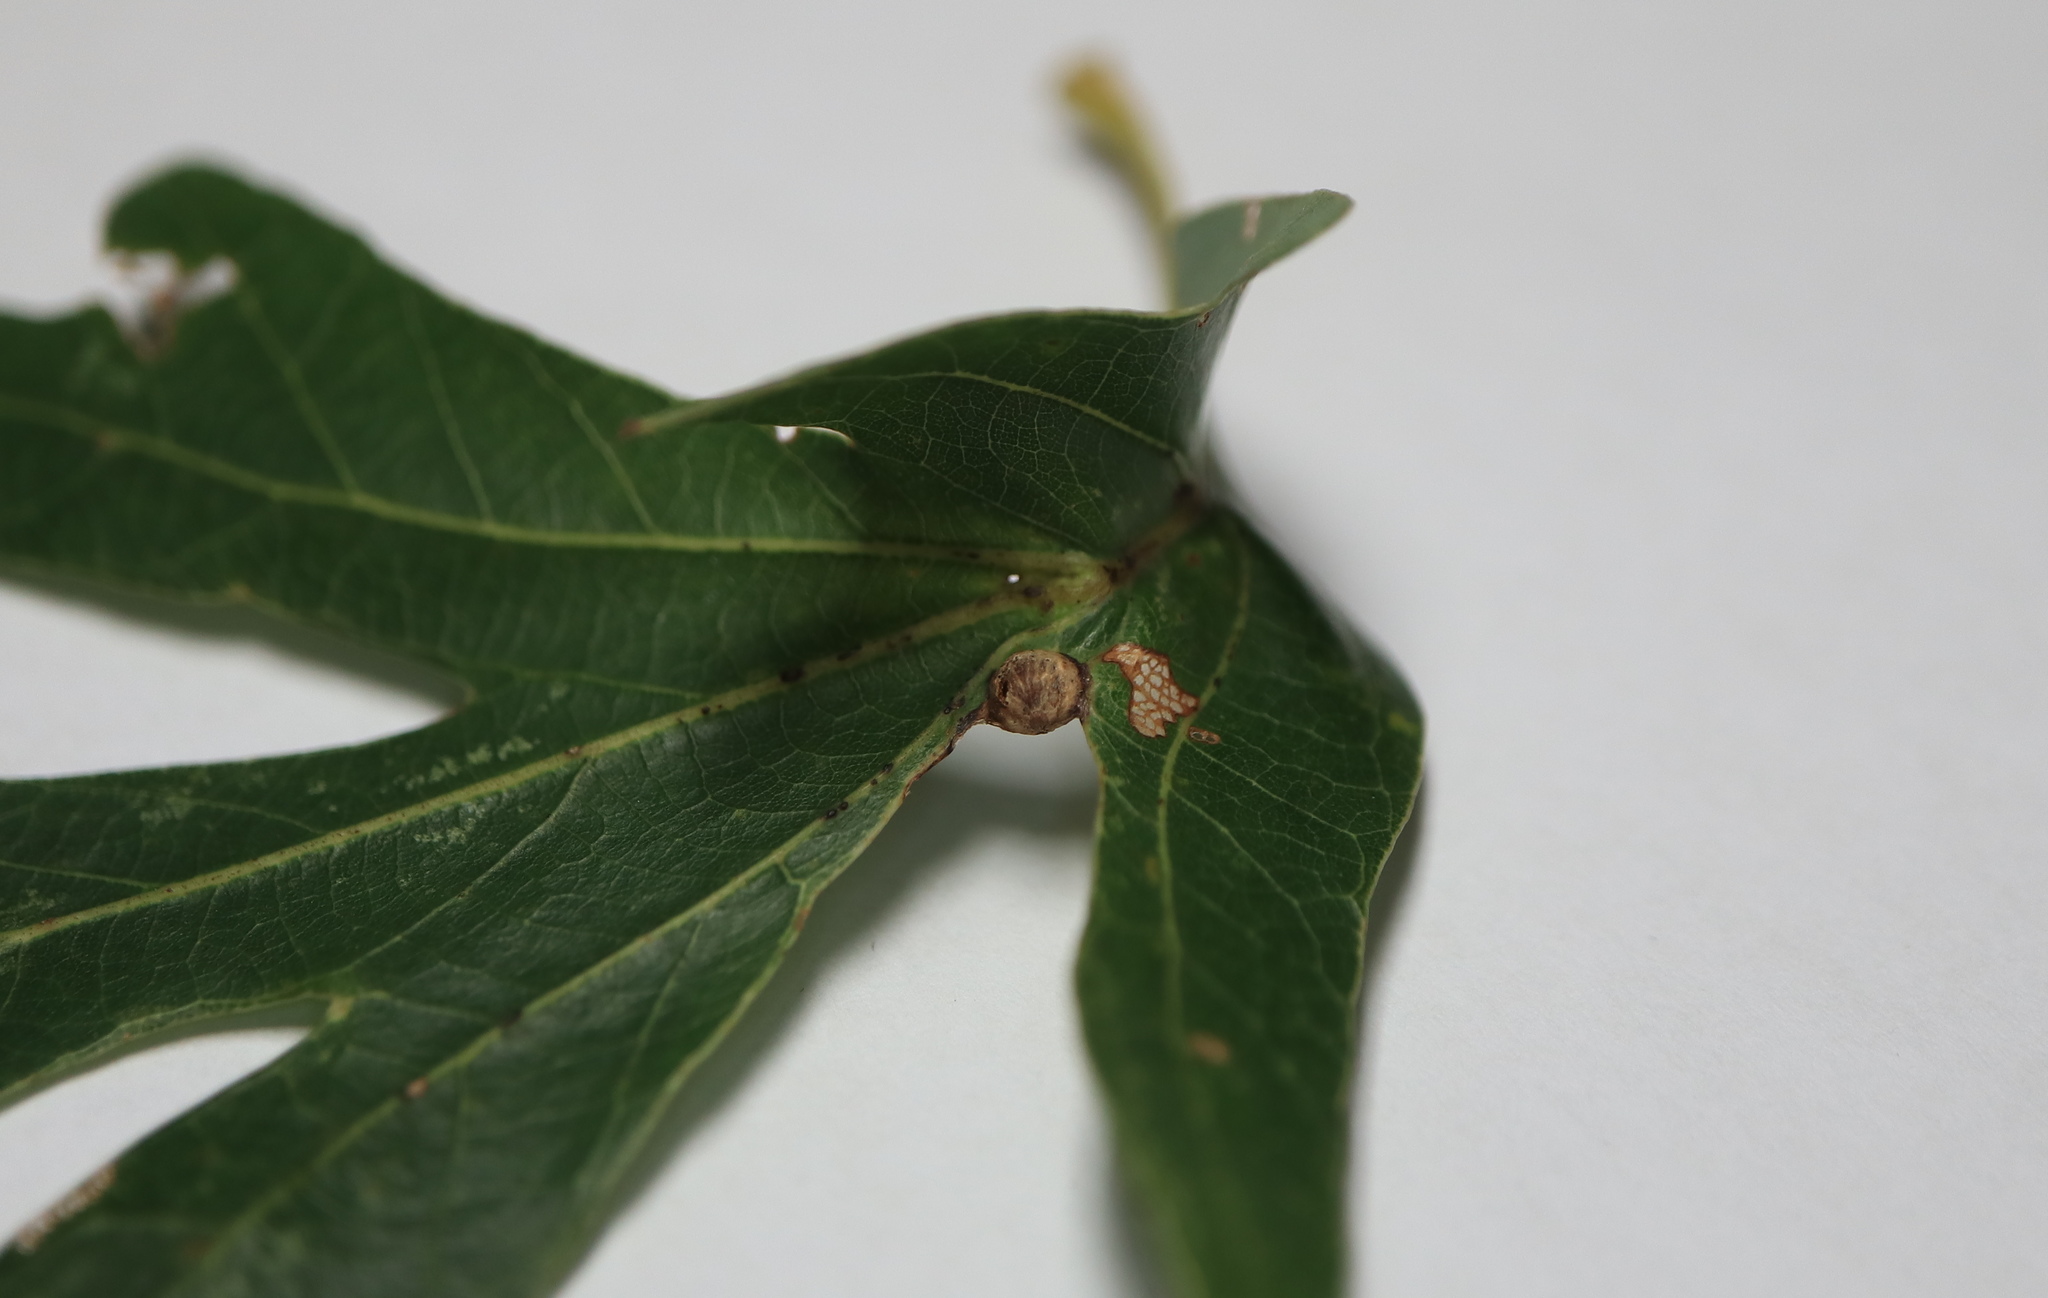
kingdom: Animalia
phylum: Arthropoda
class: Insecta
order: Hymenoptera
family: Cynipidae
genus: Andricus
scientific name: Andricus
